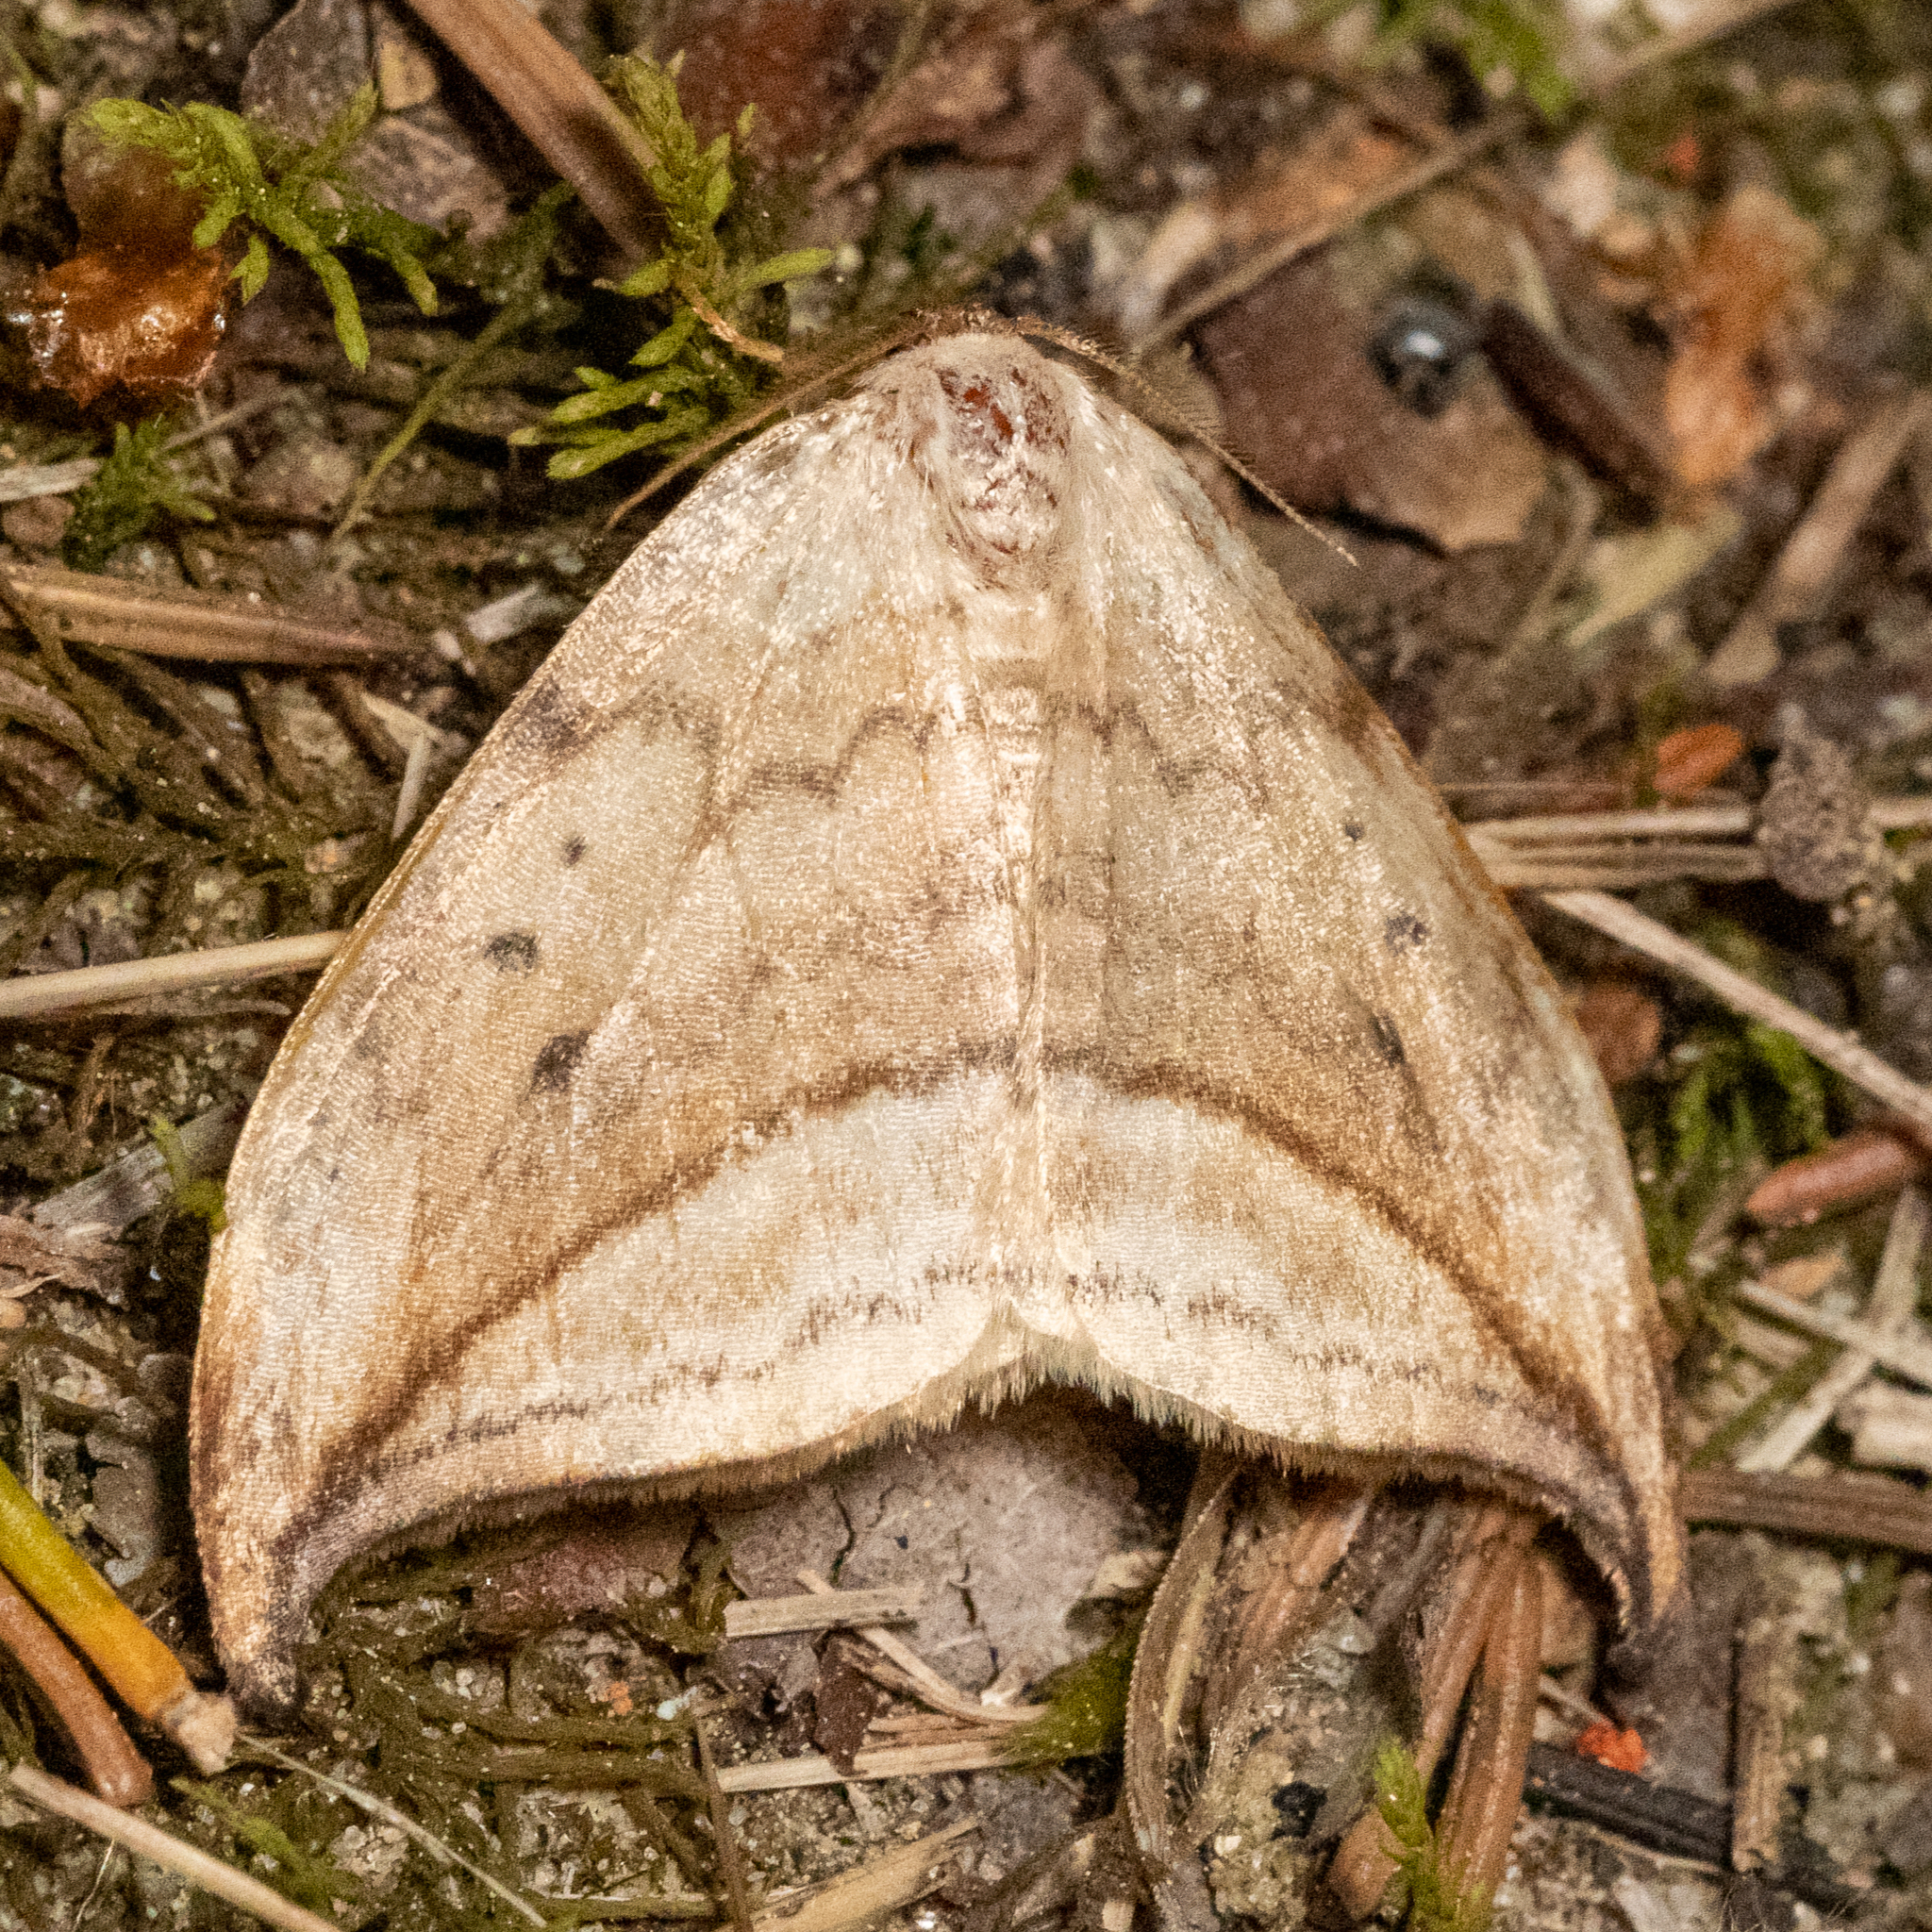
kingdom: Animalia
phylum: Arthropoda
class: Insecta
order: Lepidoptera
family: Drepanidae
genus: Drepana
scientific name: Drepana arcuata
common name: Arched hooktip moth
